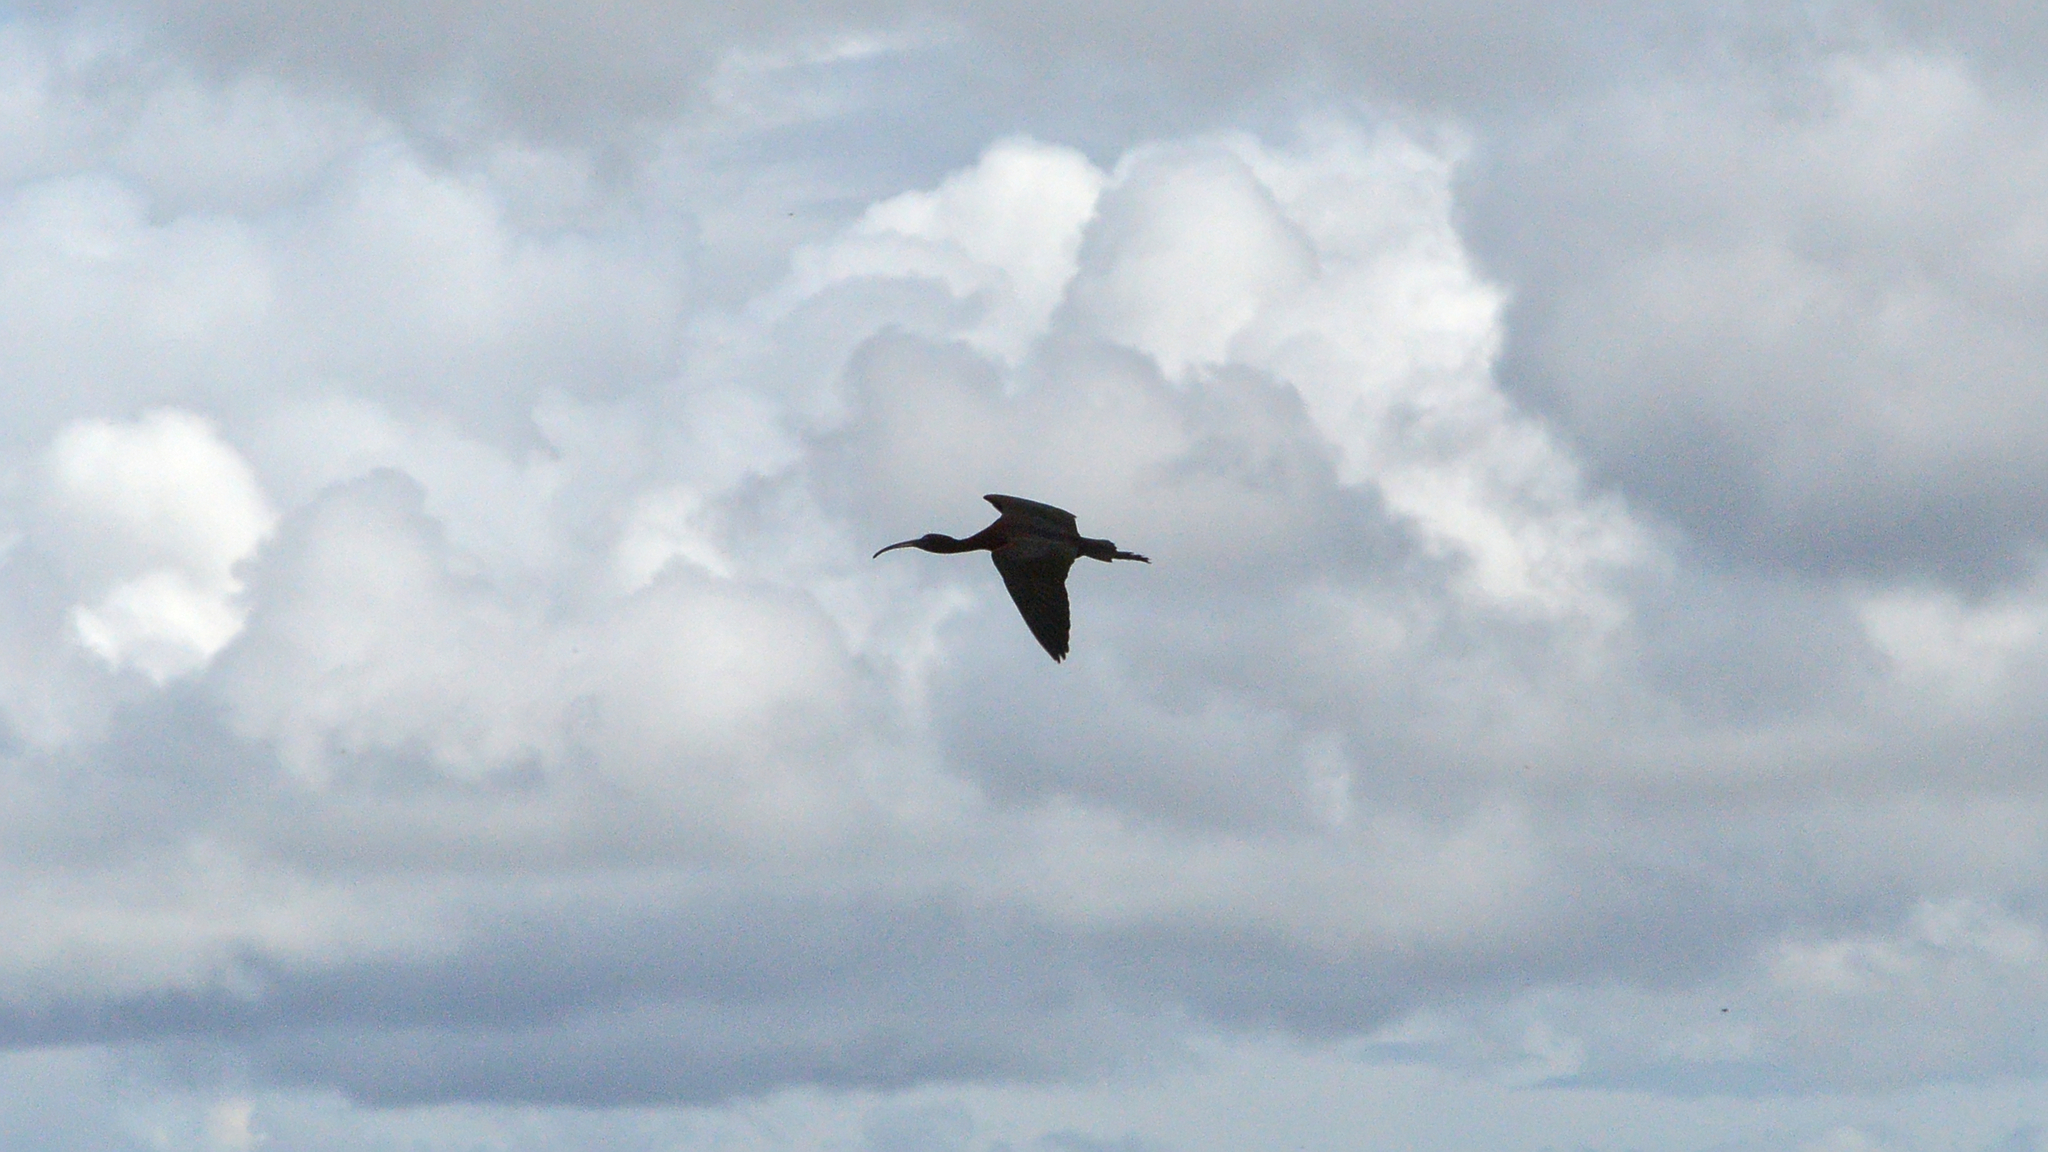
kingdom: Animalia
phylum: Chordata
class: Aves
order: Pelecaniformes
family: Threskiornithidae
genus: Plegadis
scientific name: Plegadis falcinellus
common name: Glossy ibis
